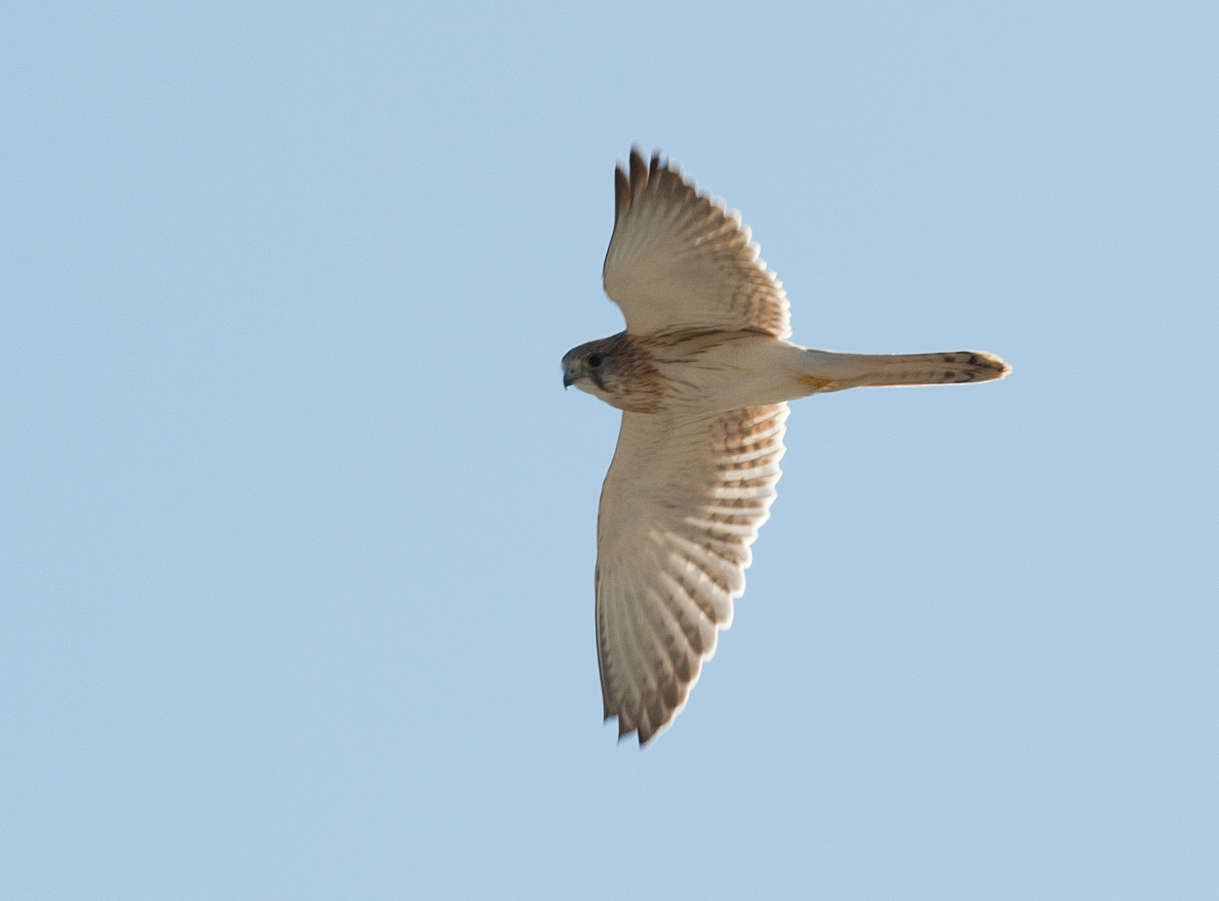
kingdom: Animalia
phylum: Chordata
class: Aves
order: Falconiformes
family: Falconidae
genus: Falco
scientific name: Falco cenchroides
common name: Nankeen kestrel
